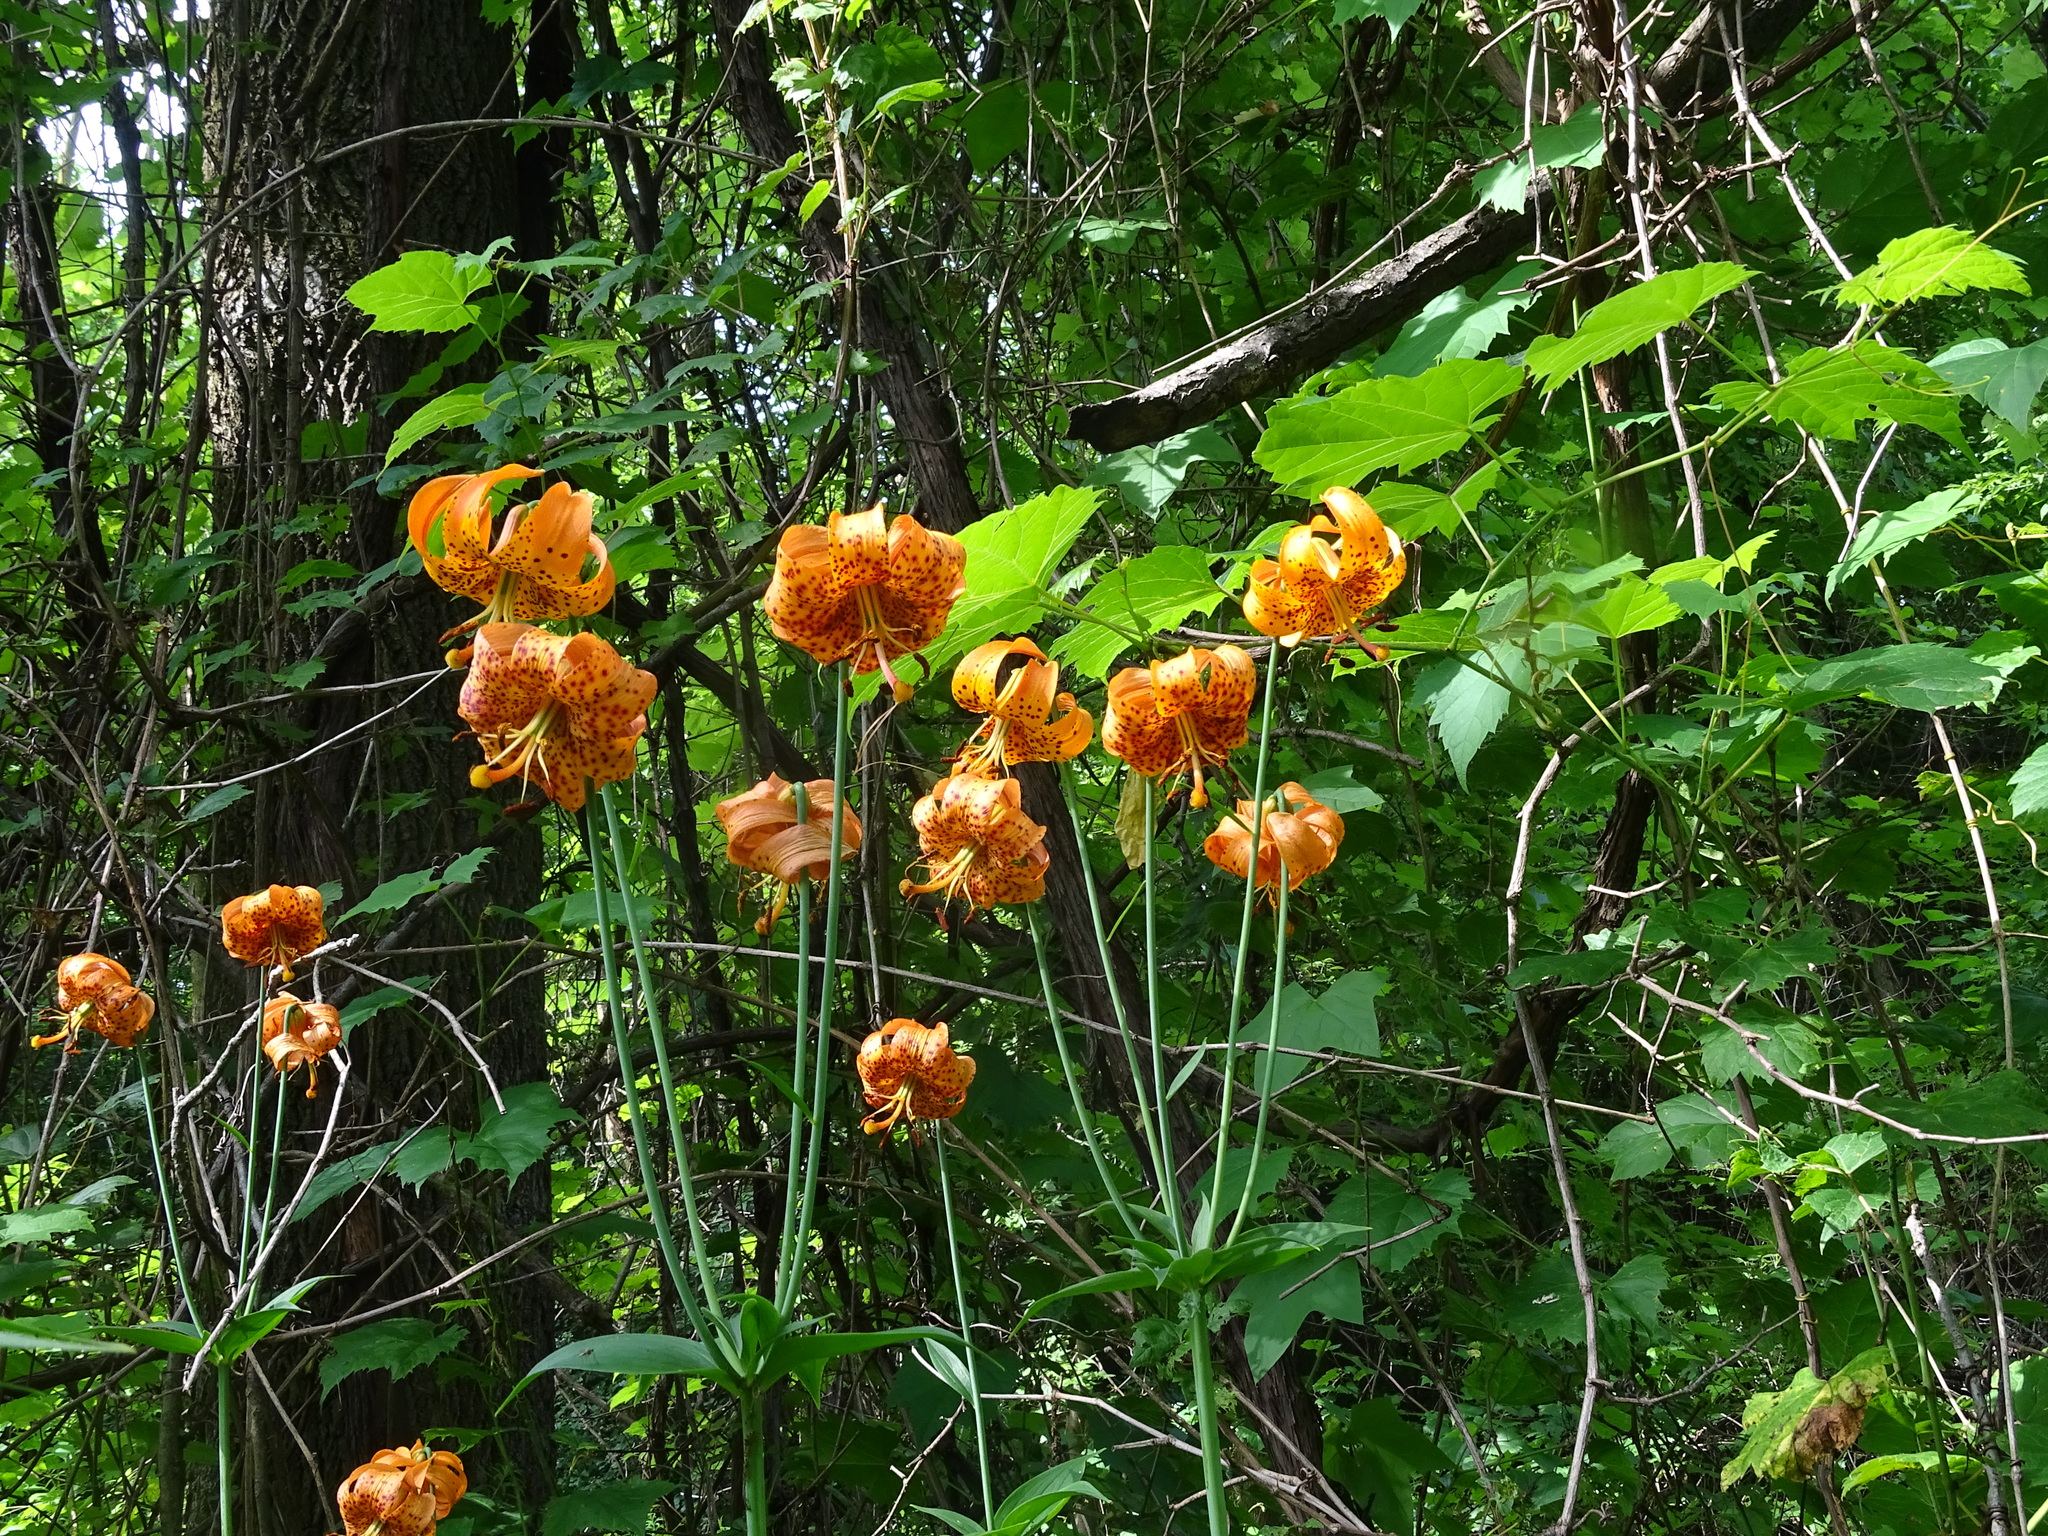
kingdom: Plantae
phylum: Tracheophyta
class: Liliopsida
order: Liliales
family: Liliaceae
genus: Lilium
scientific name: Lilium michiganense
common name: Michigan lily
